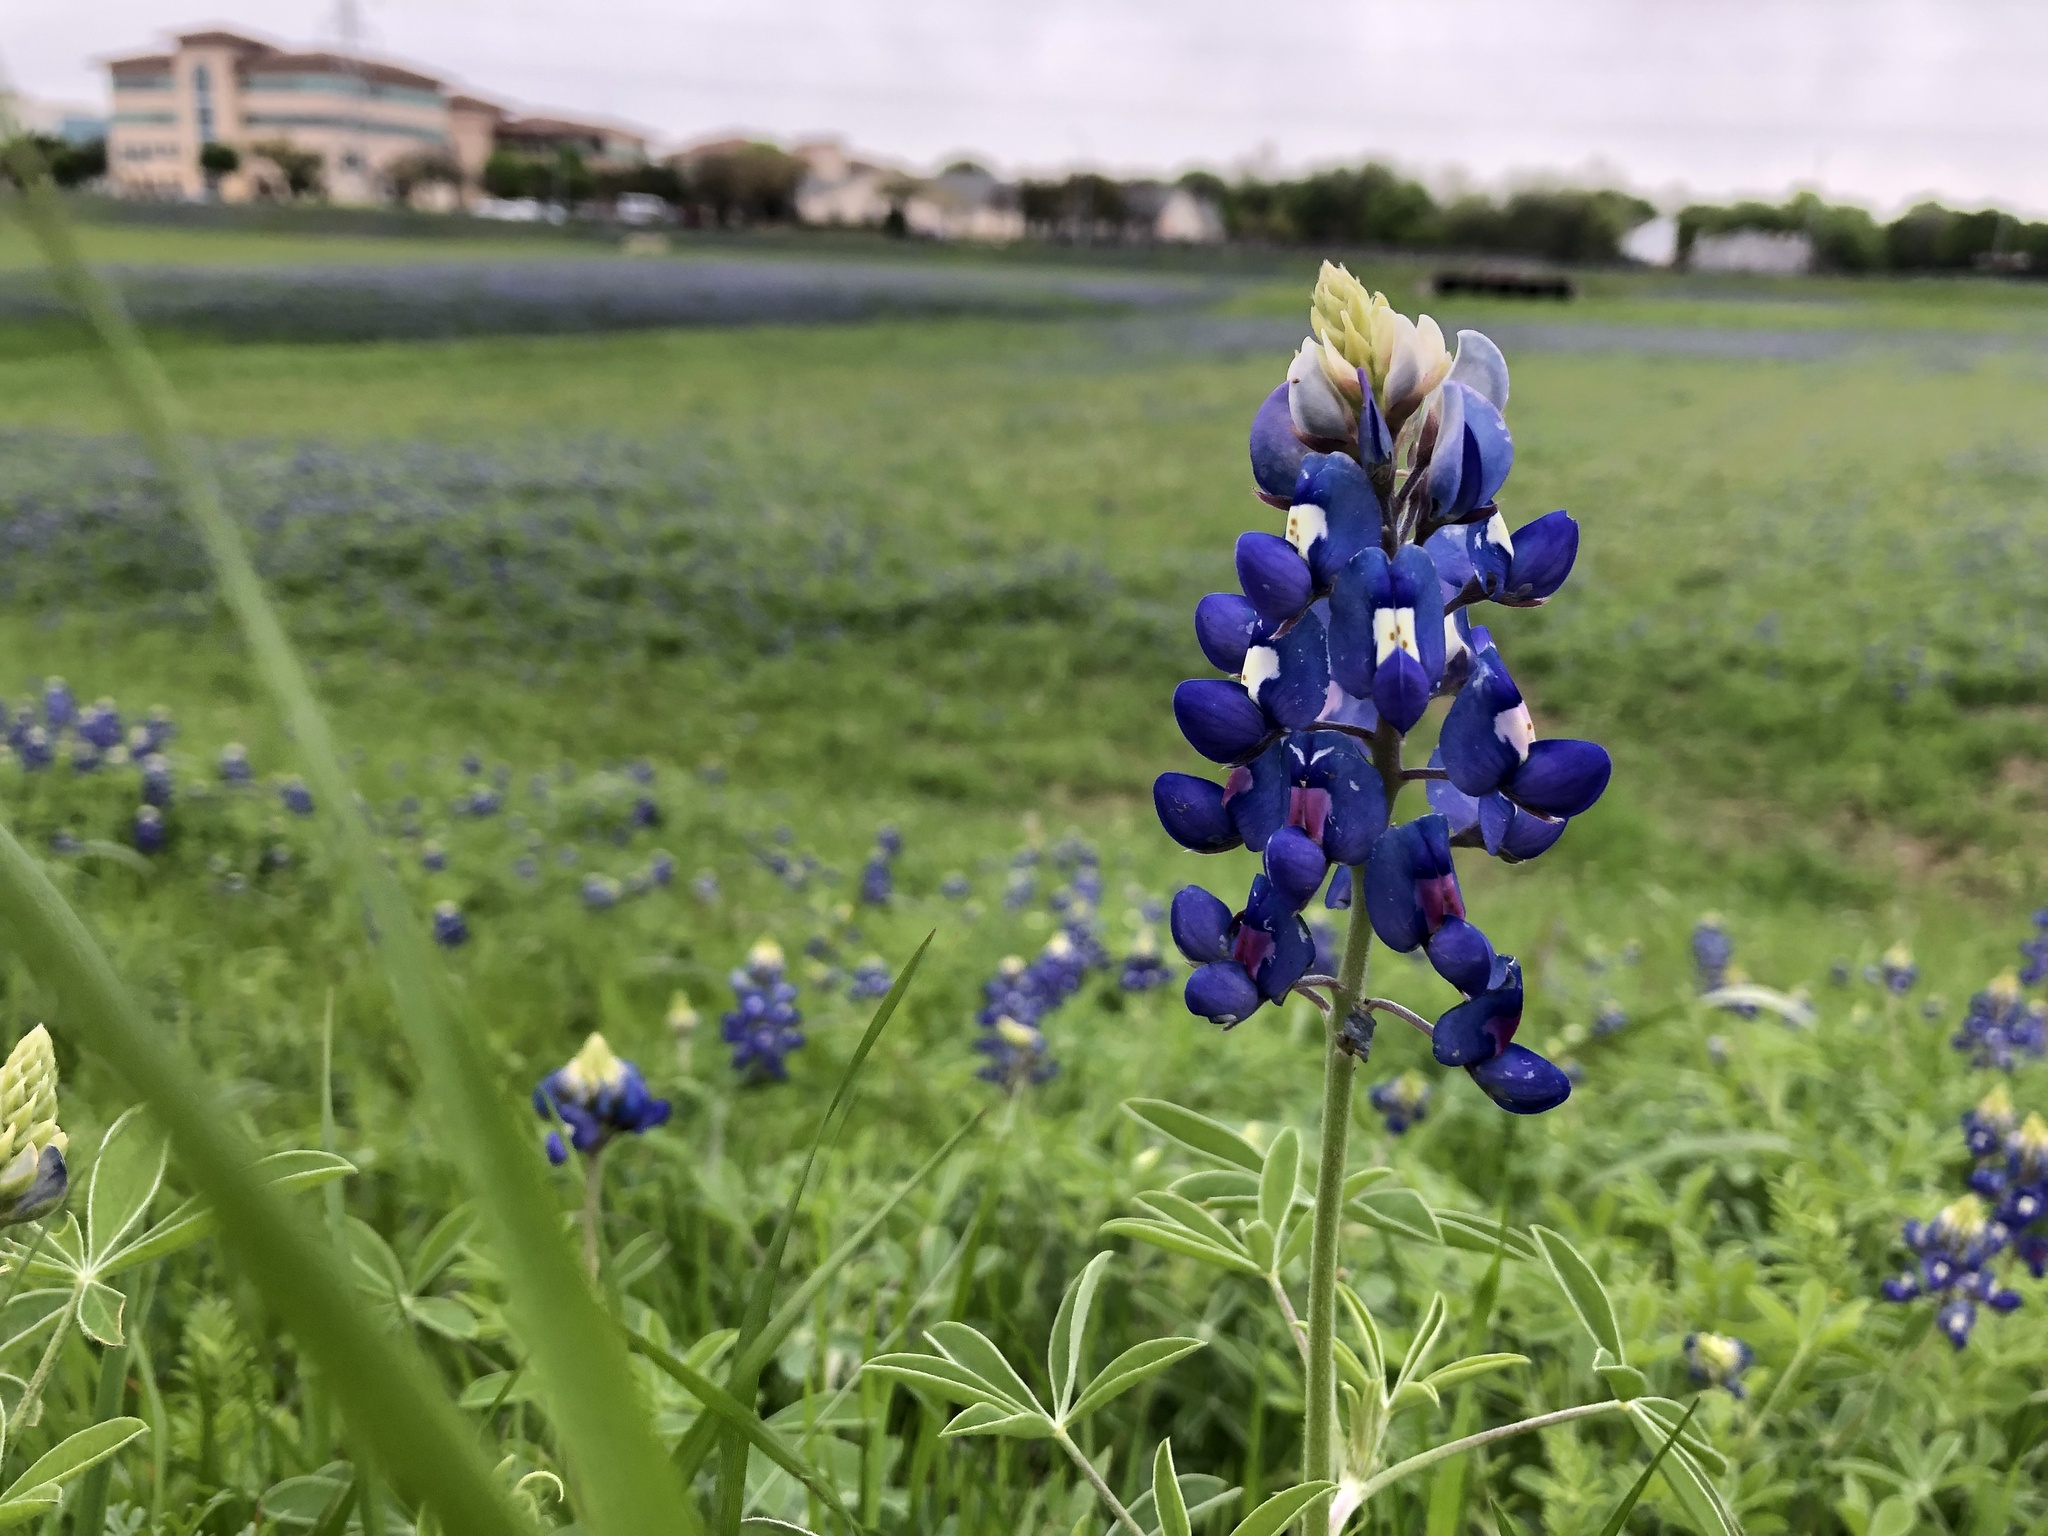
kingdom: Plantae
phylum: Tracheophyta
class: Magnoliopsida
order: Fabales
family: Fabaceae
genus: Lupinus
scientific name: Lupinus texensis
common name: Texas bluebonnet
